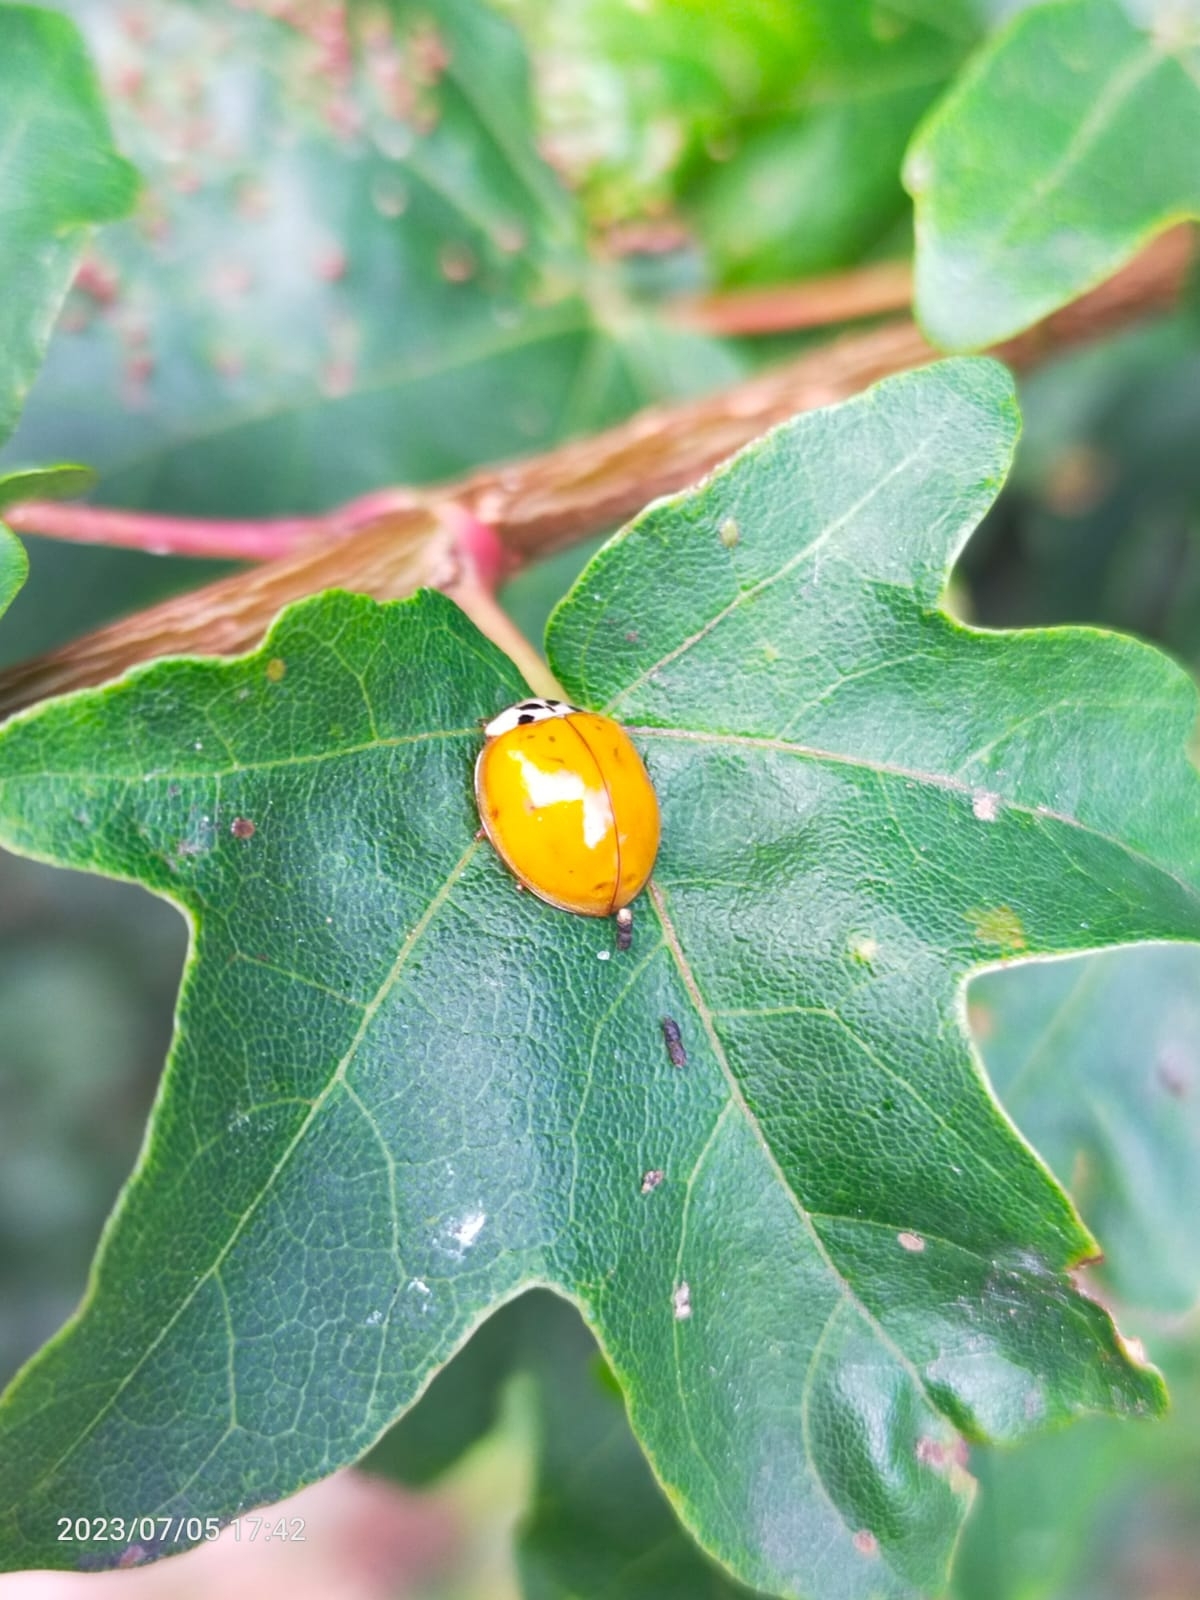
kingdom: Animalia
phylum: Arthropoda
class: Insecta
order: Coleoptera
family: Coccinellidae
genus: Harmonia
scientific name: Harmonia axyridis
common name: Harlequin ladybird
